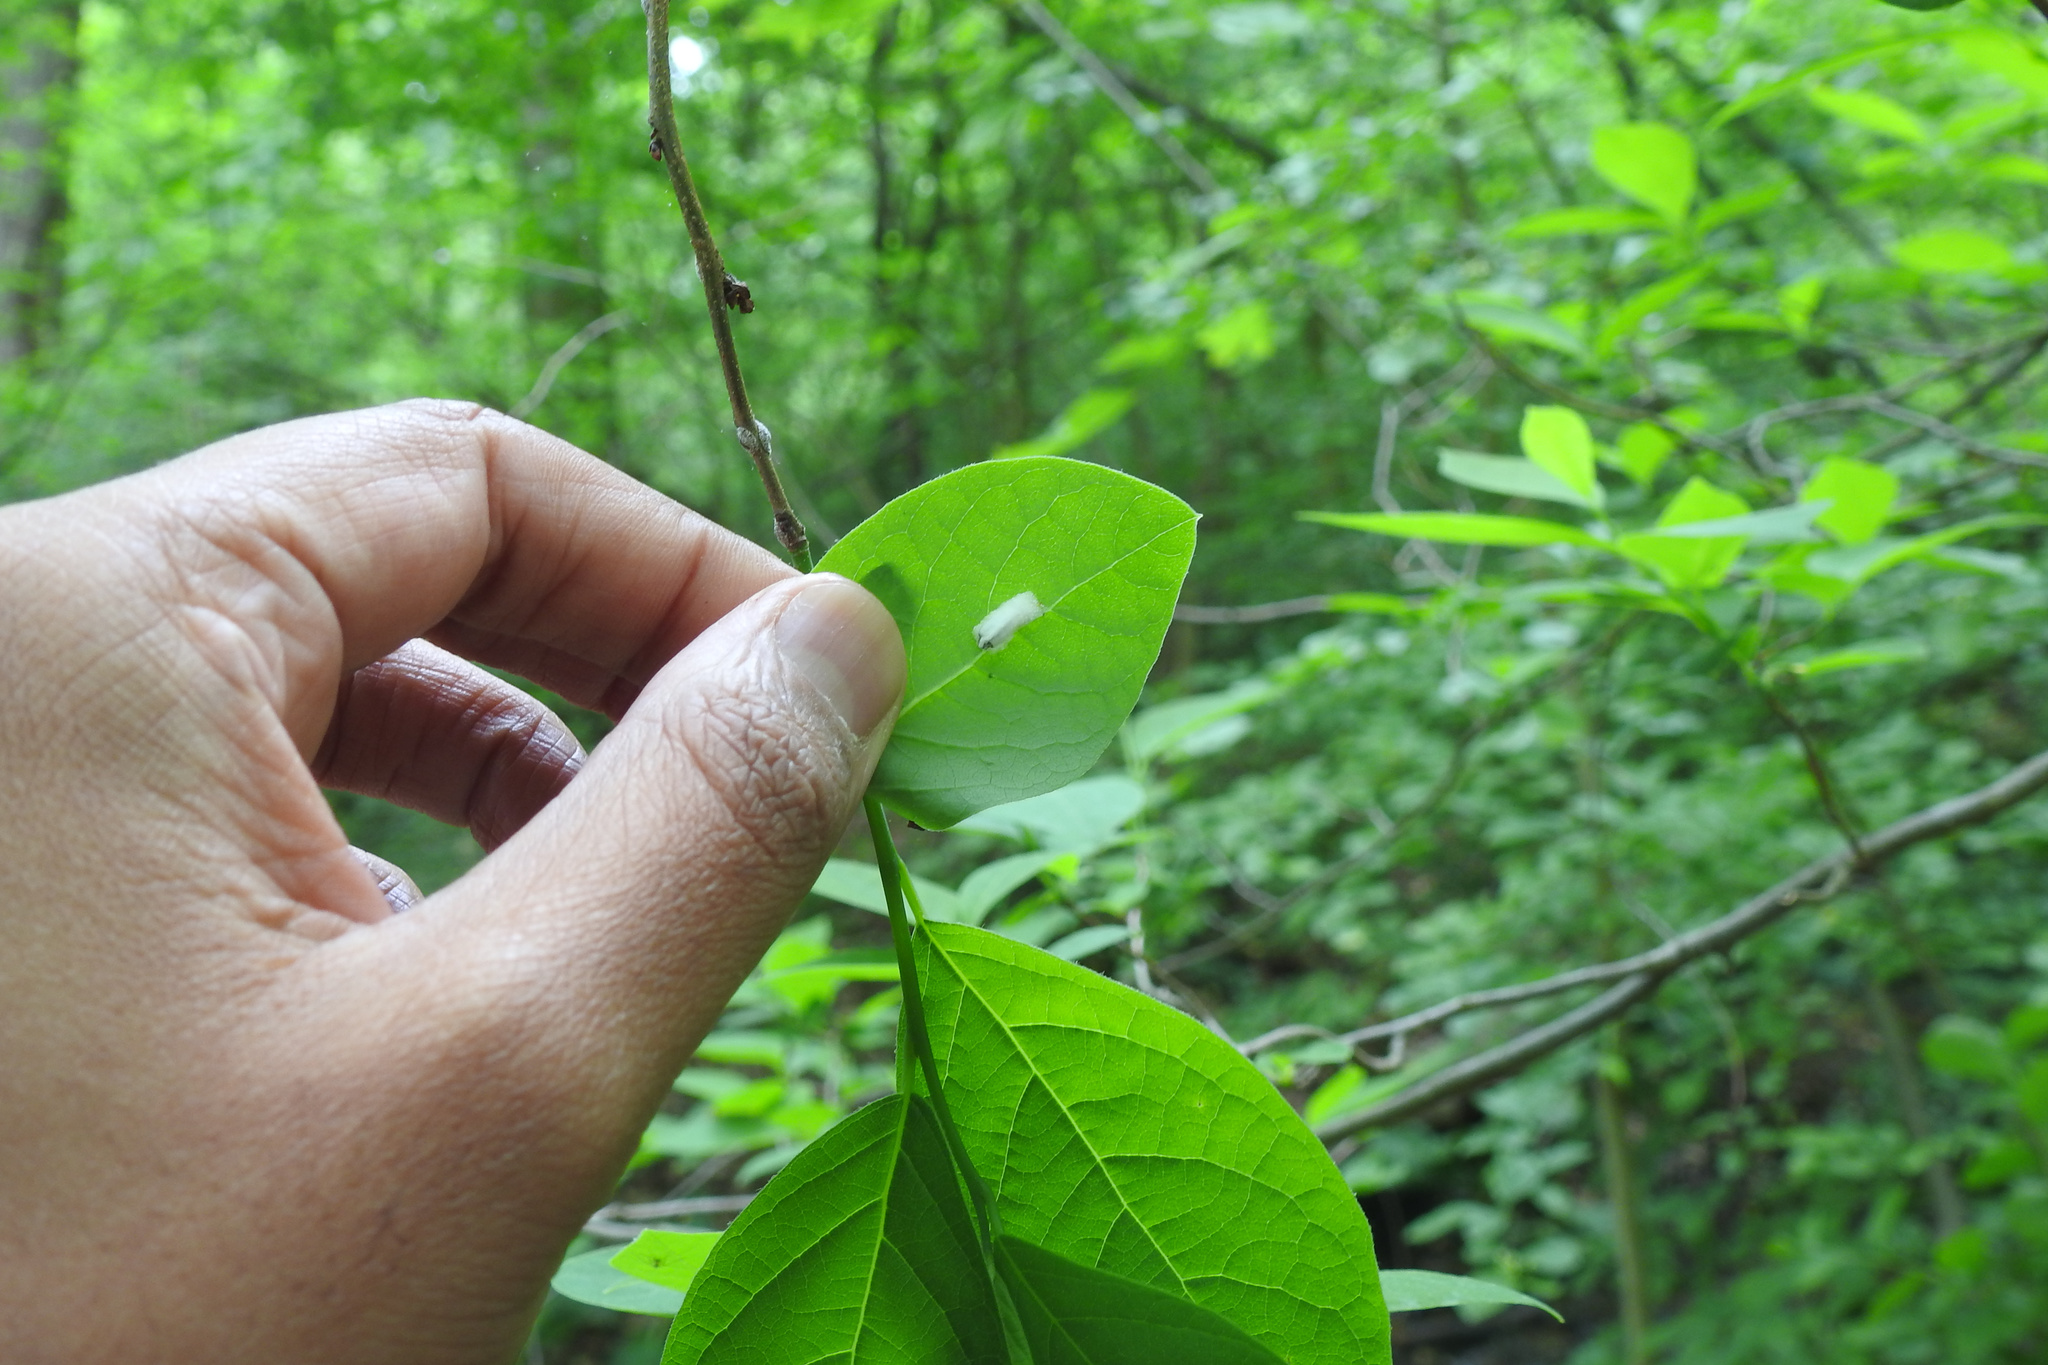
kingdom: Plantae
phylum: Tracheophyta
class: Magnoliopsida
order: Laurales
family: Lauraceae
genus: Lindera
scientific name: Lindera benzoin
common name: Spicebush
